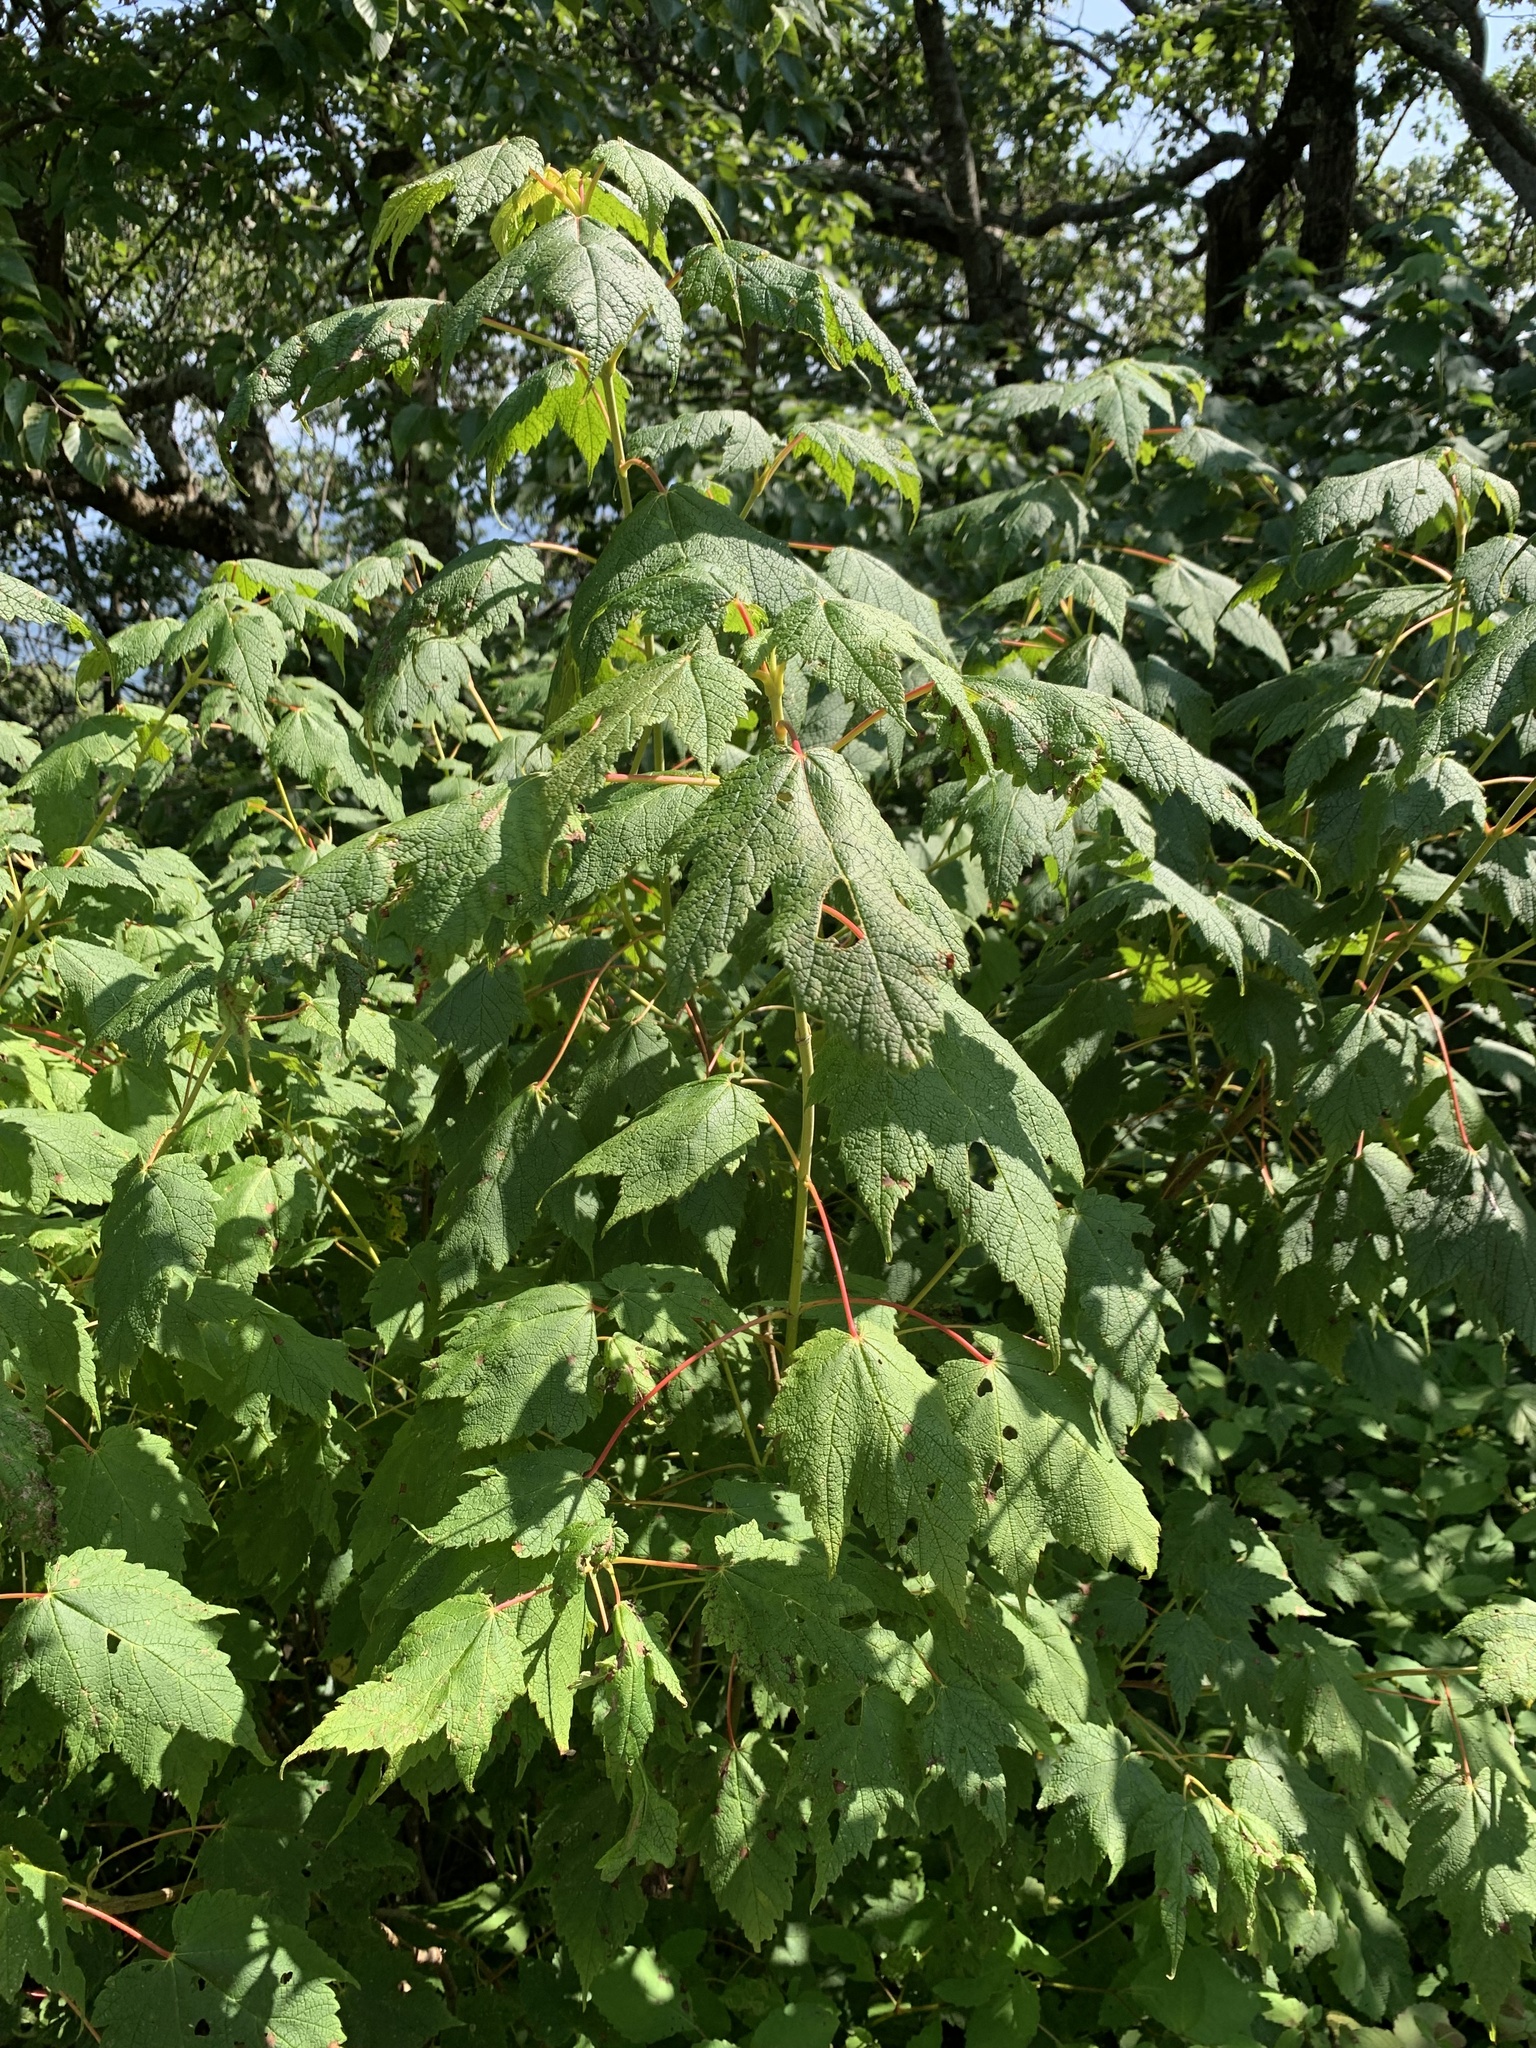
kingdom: Plantae
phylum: Tracheophyta
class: Magnoliopsida
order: Sapindales
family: Sapindaceae
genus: Acer
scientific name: Acer spicatum
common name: Mountain maple
